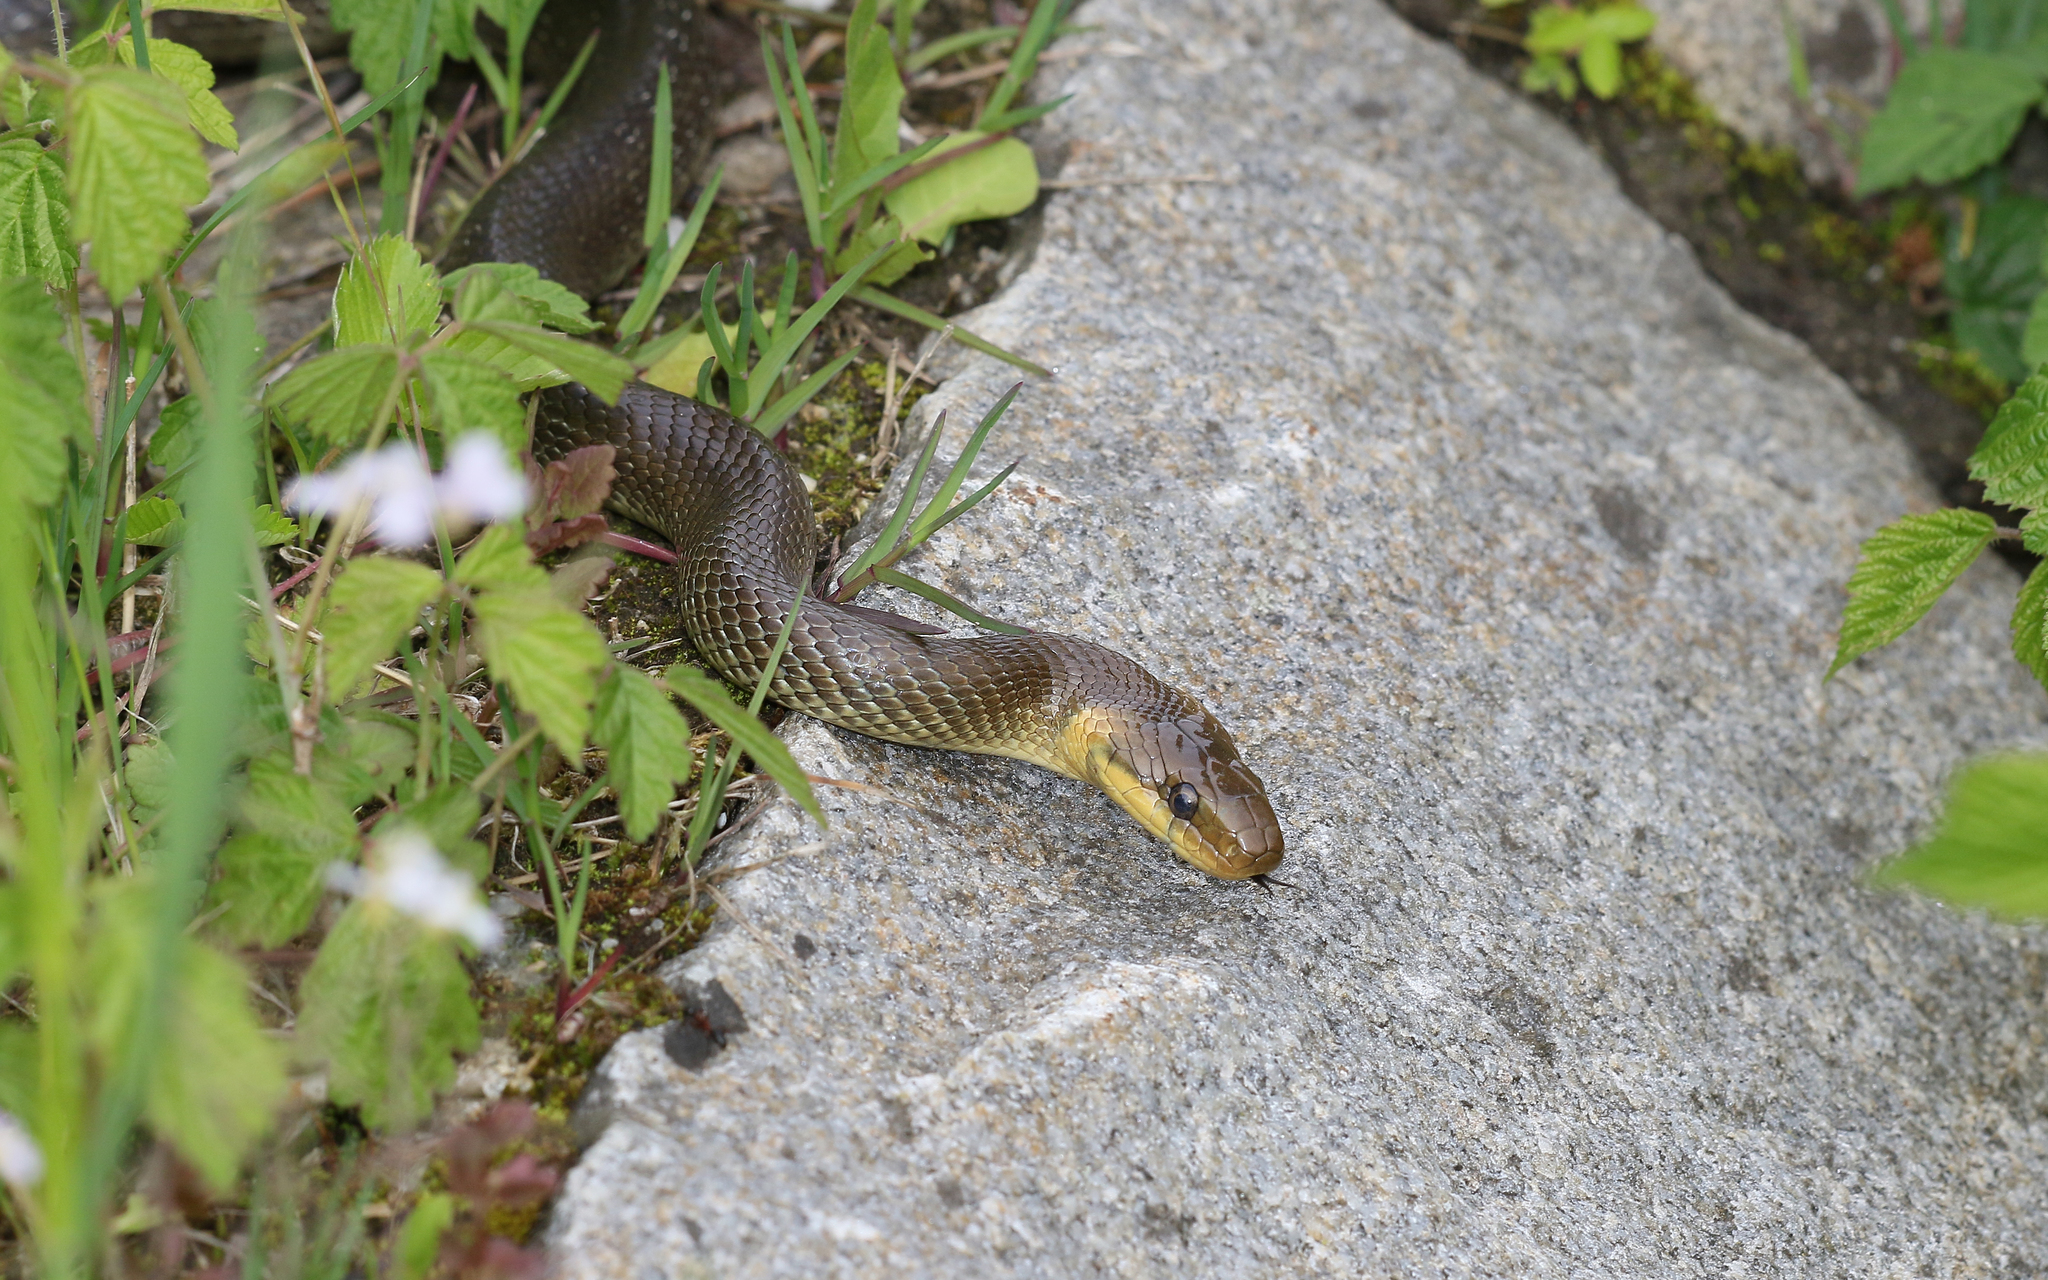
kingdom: Animalia
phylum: Chordata
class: Squamata
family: Colubridae
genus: Zamenis
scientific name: Zamenis longissimus
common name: Aesculapean snake
